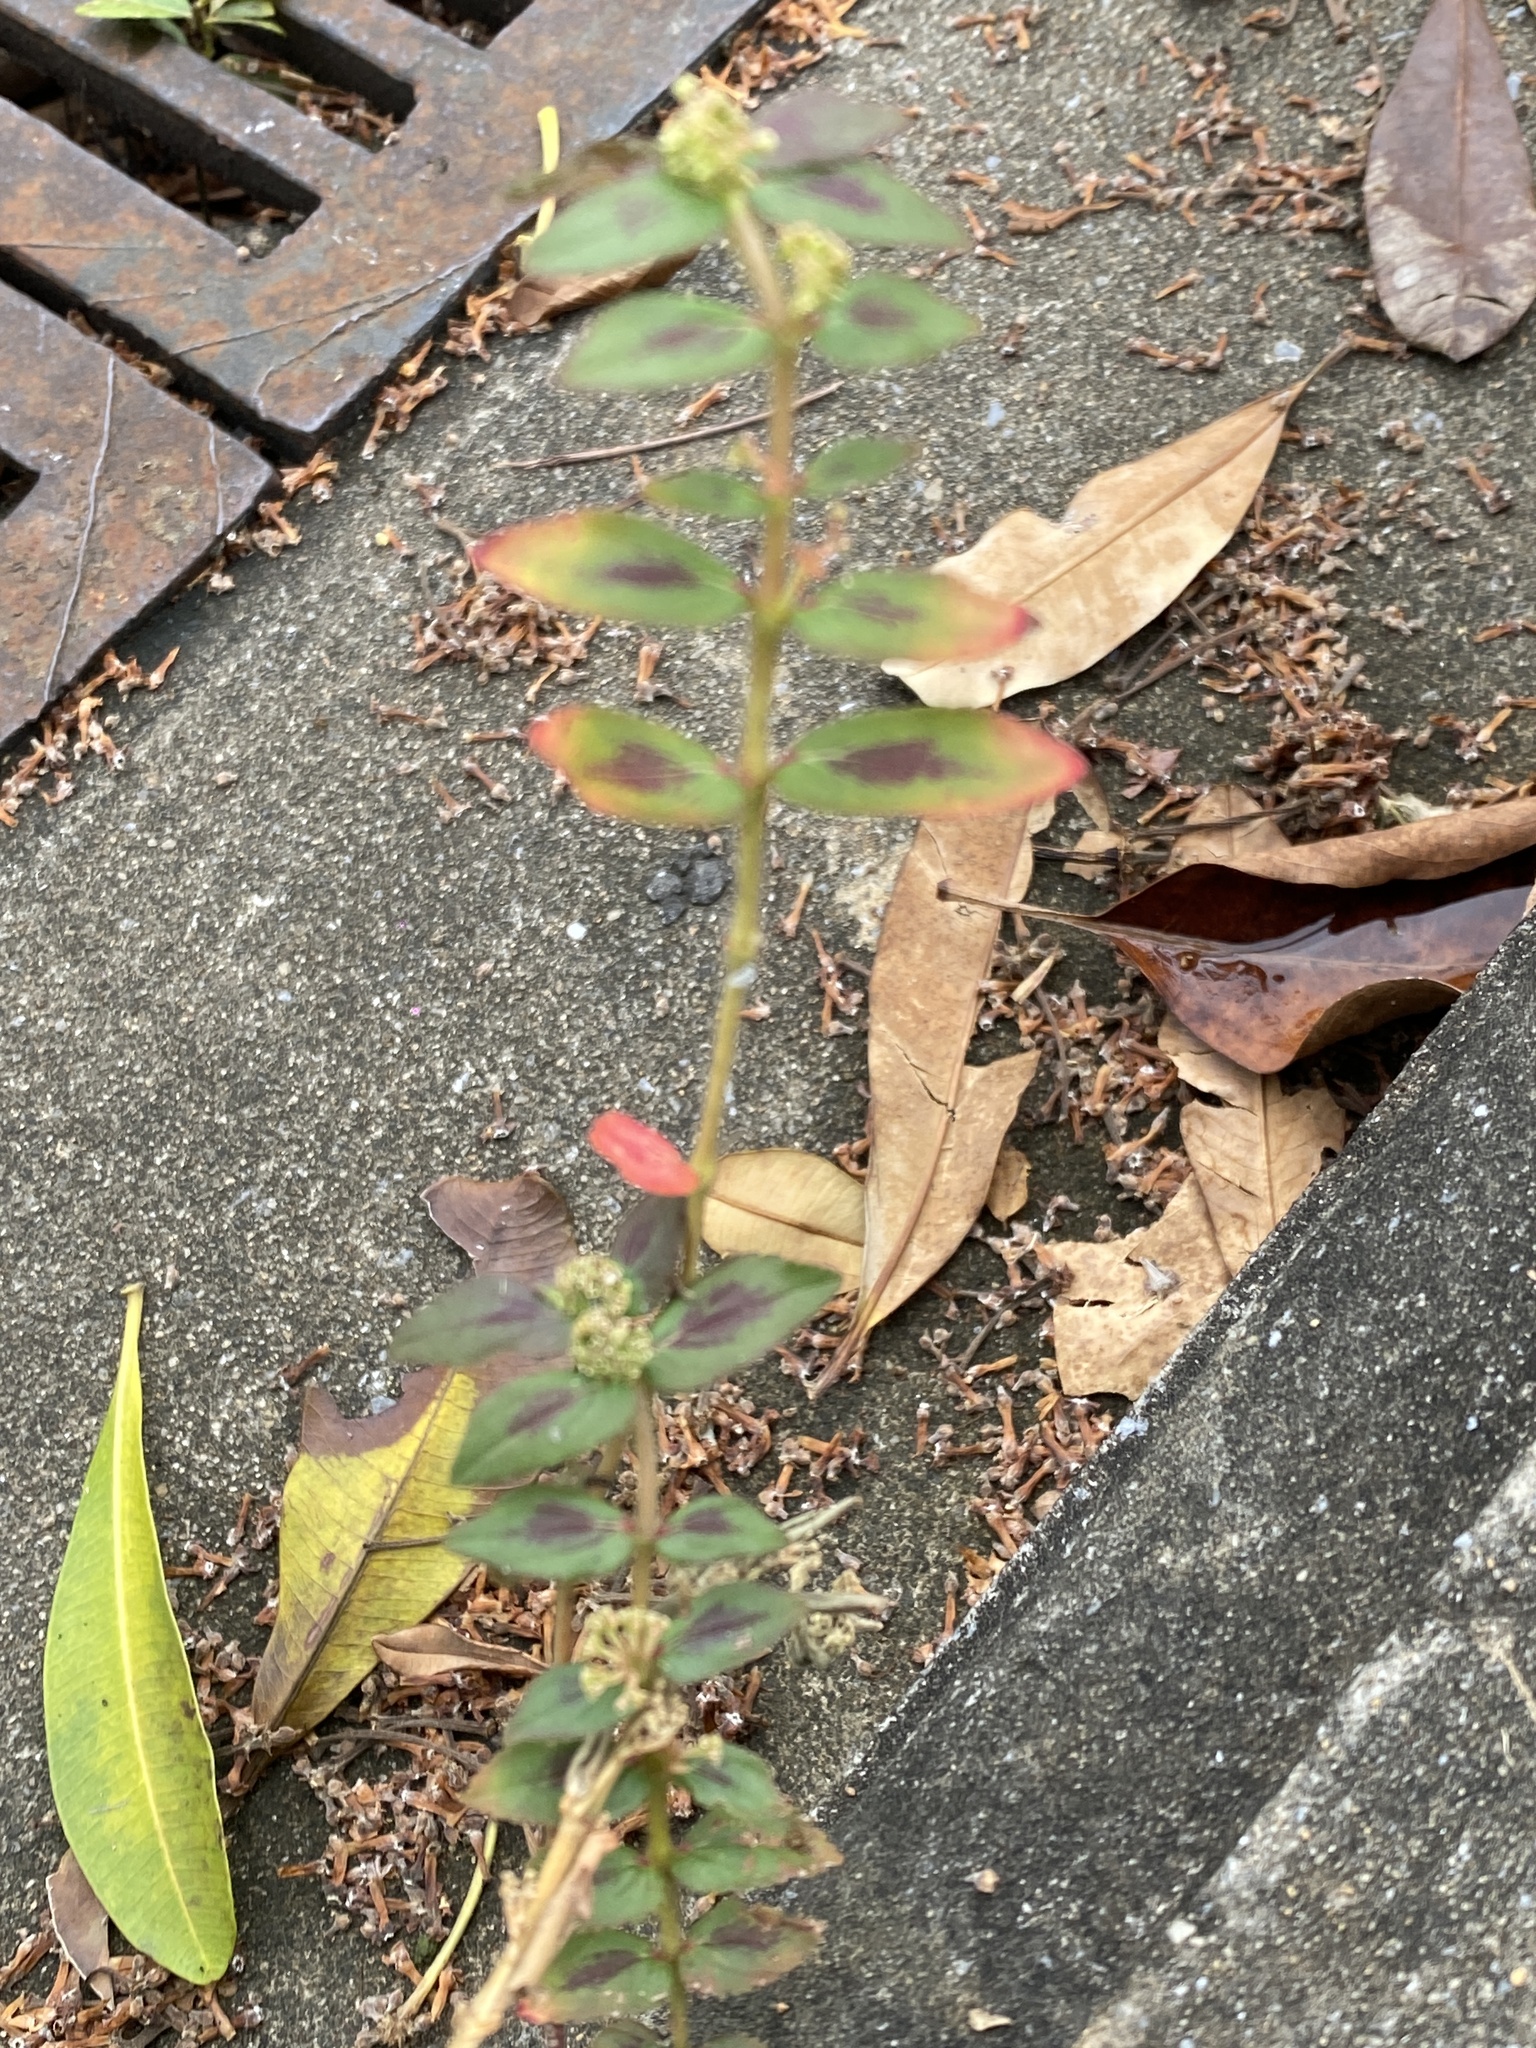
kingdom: Plantae
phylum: Tracheophyta
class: Magnoliopsida
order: Malpighiales
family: Euphorbiaceae
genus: Euphorbia
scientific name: Euphorbia hirta
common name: Pillpod sandmat
